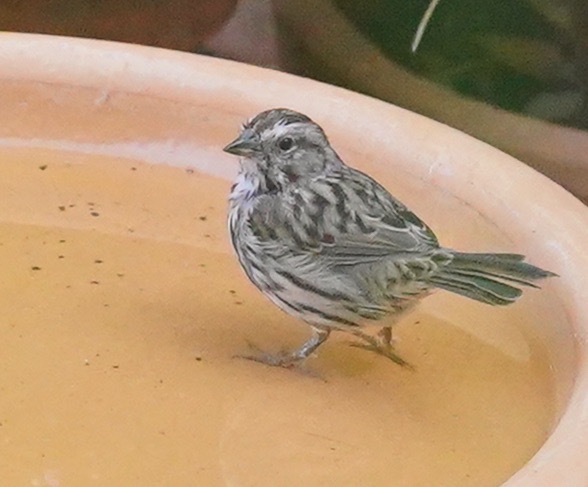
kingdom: Animalia
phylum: Chordata
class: Aves
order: Passeriformes
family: Passerellidae
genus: Melospiza
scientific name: Melospiza melodia
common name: Song sparrow
